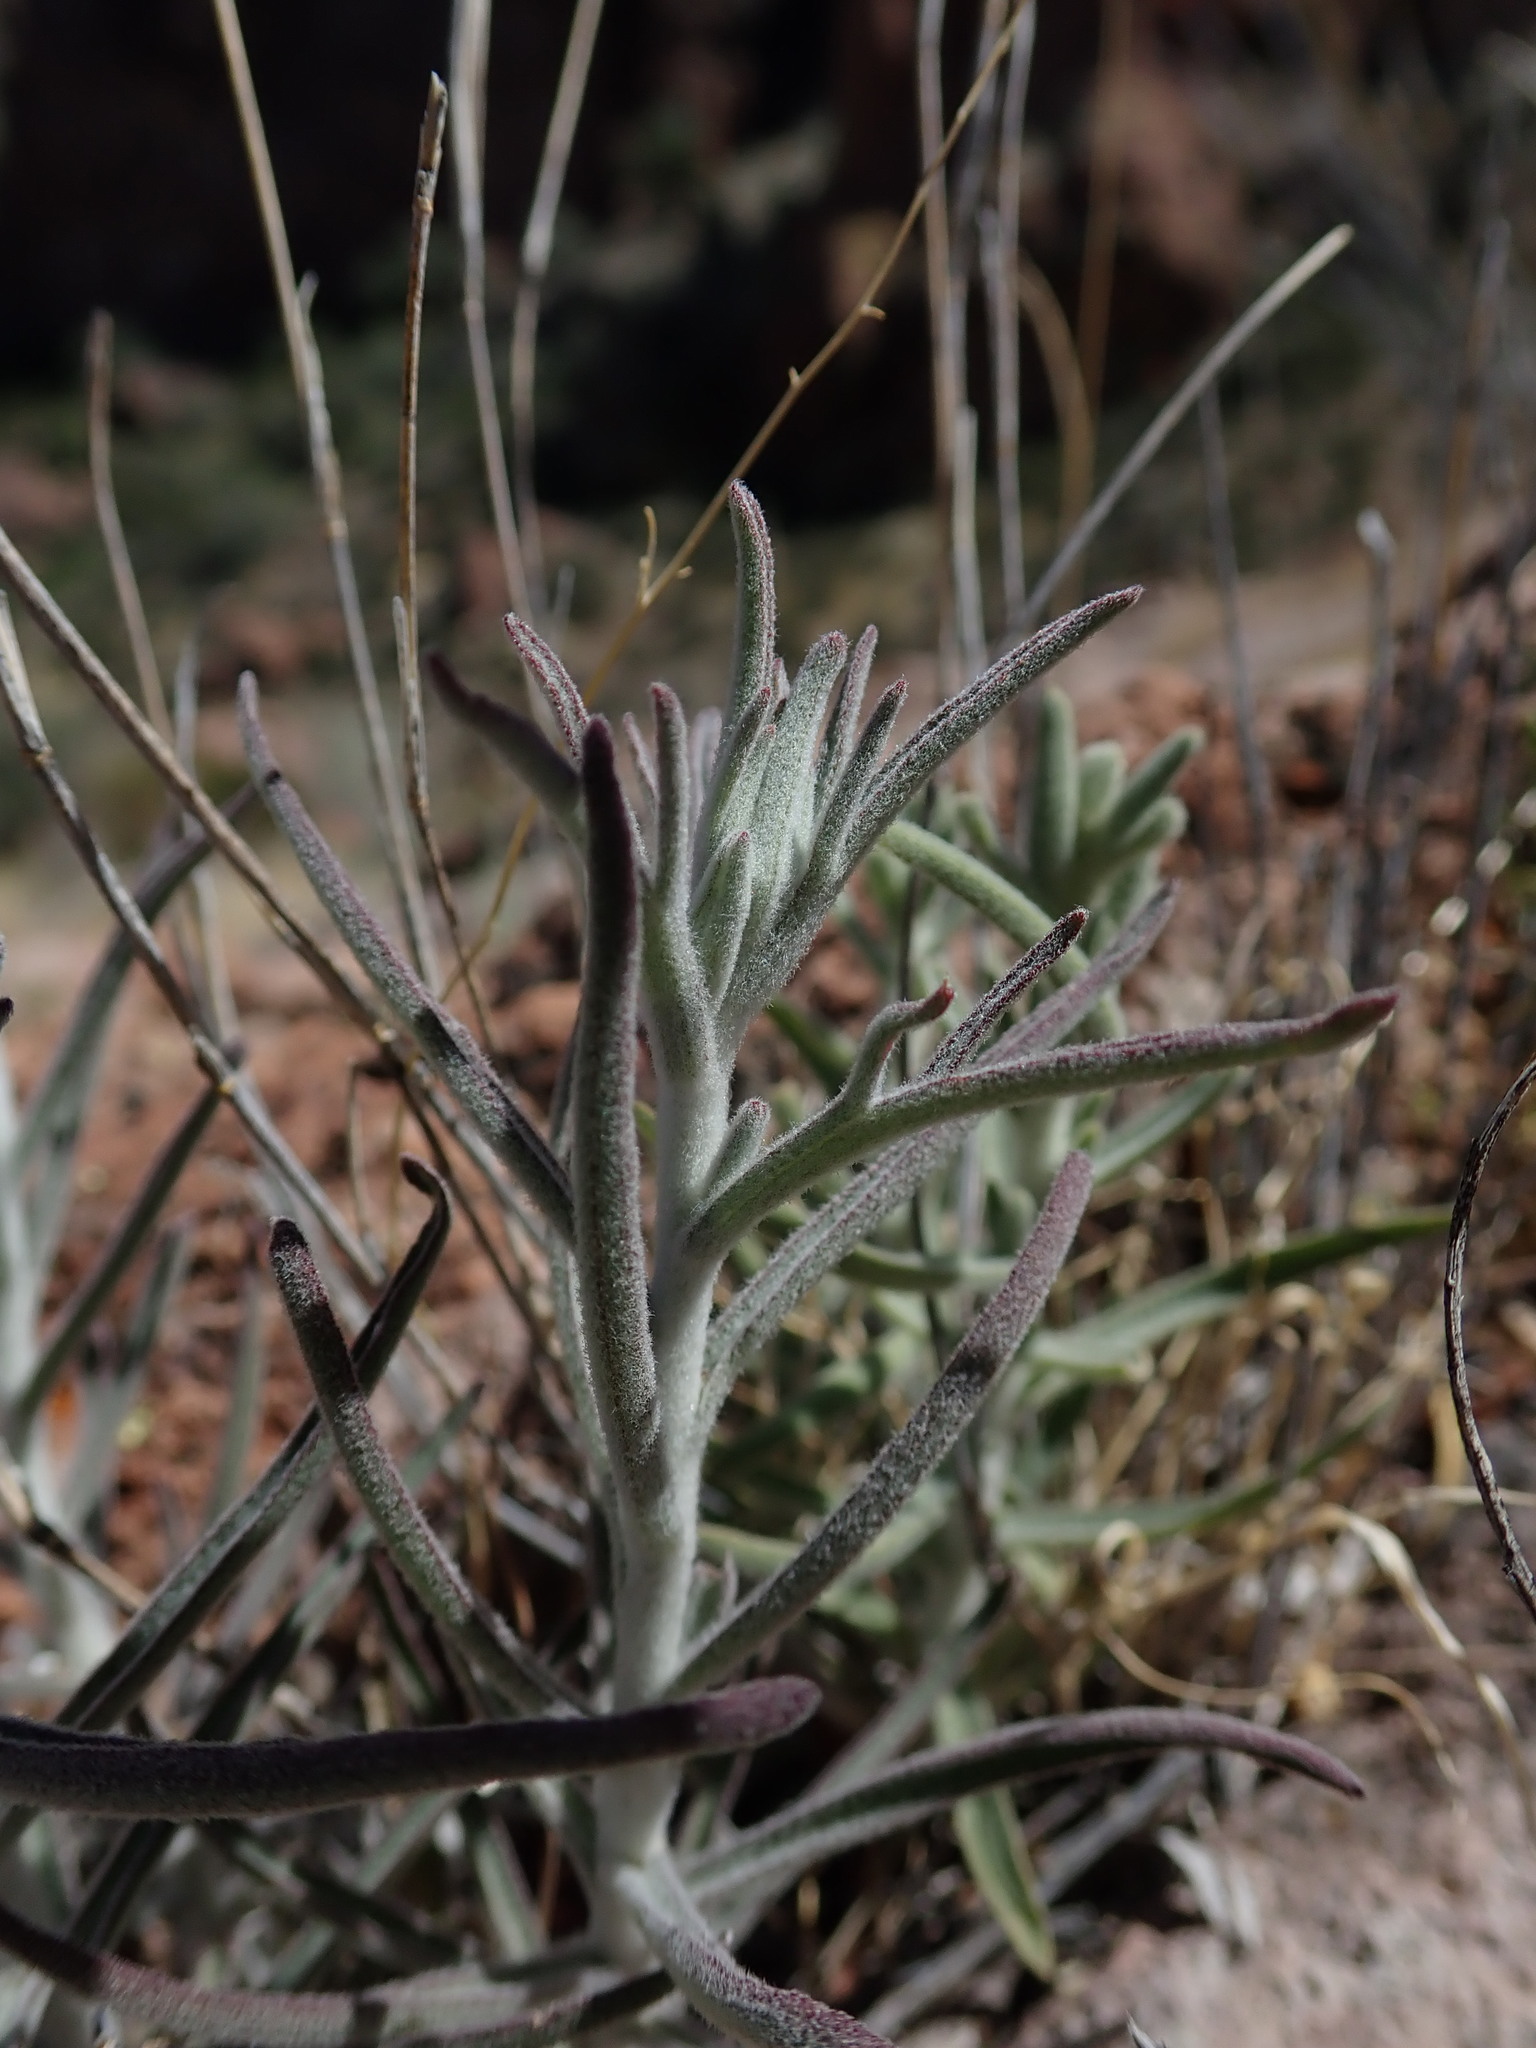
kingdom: Plantae
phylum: Tracheophyta
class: Magnoliopsida
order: Lamiales
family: Orobanchaceae
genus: Castilleja
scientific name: Castilleja lanata
